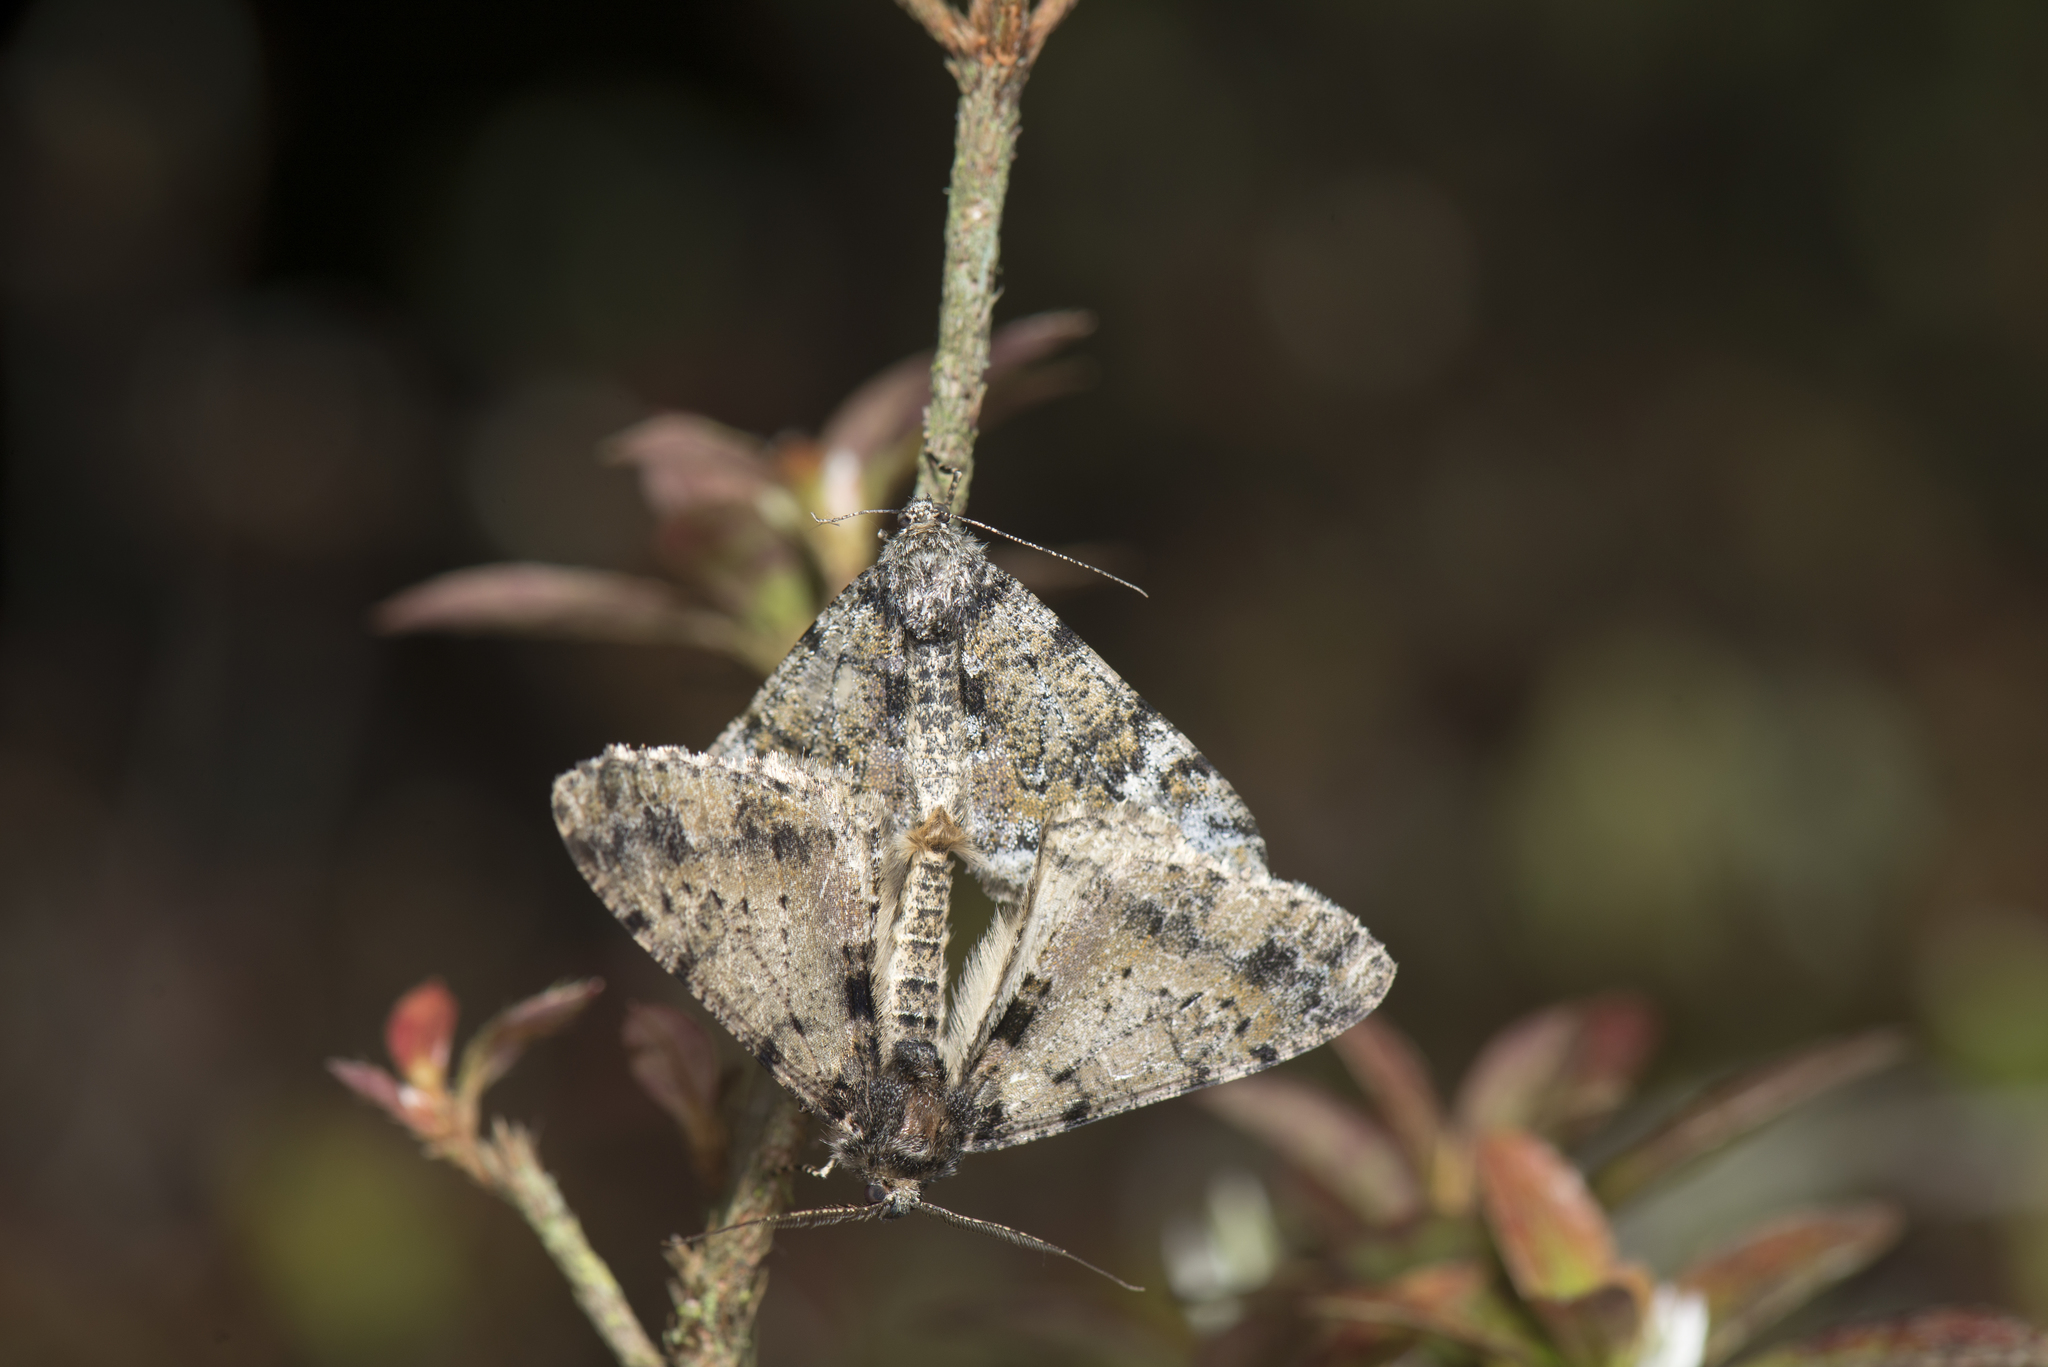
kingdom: Animalia
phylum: Arthropoda
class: Insecta
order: Lepidoptera
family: Geometridae
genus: Alcis
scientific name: Alcis semiusta
